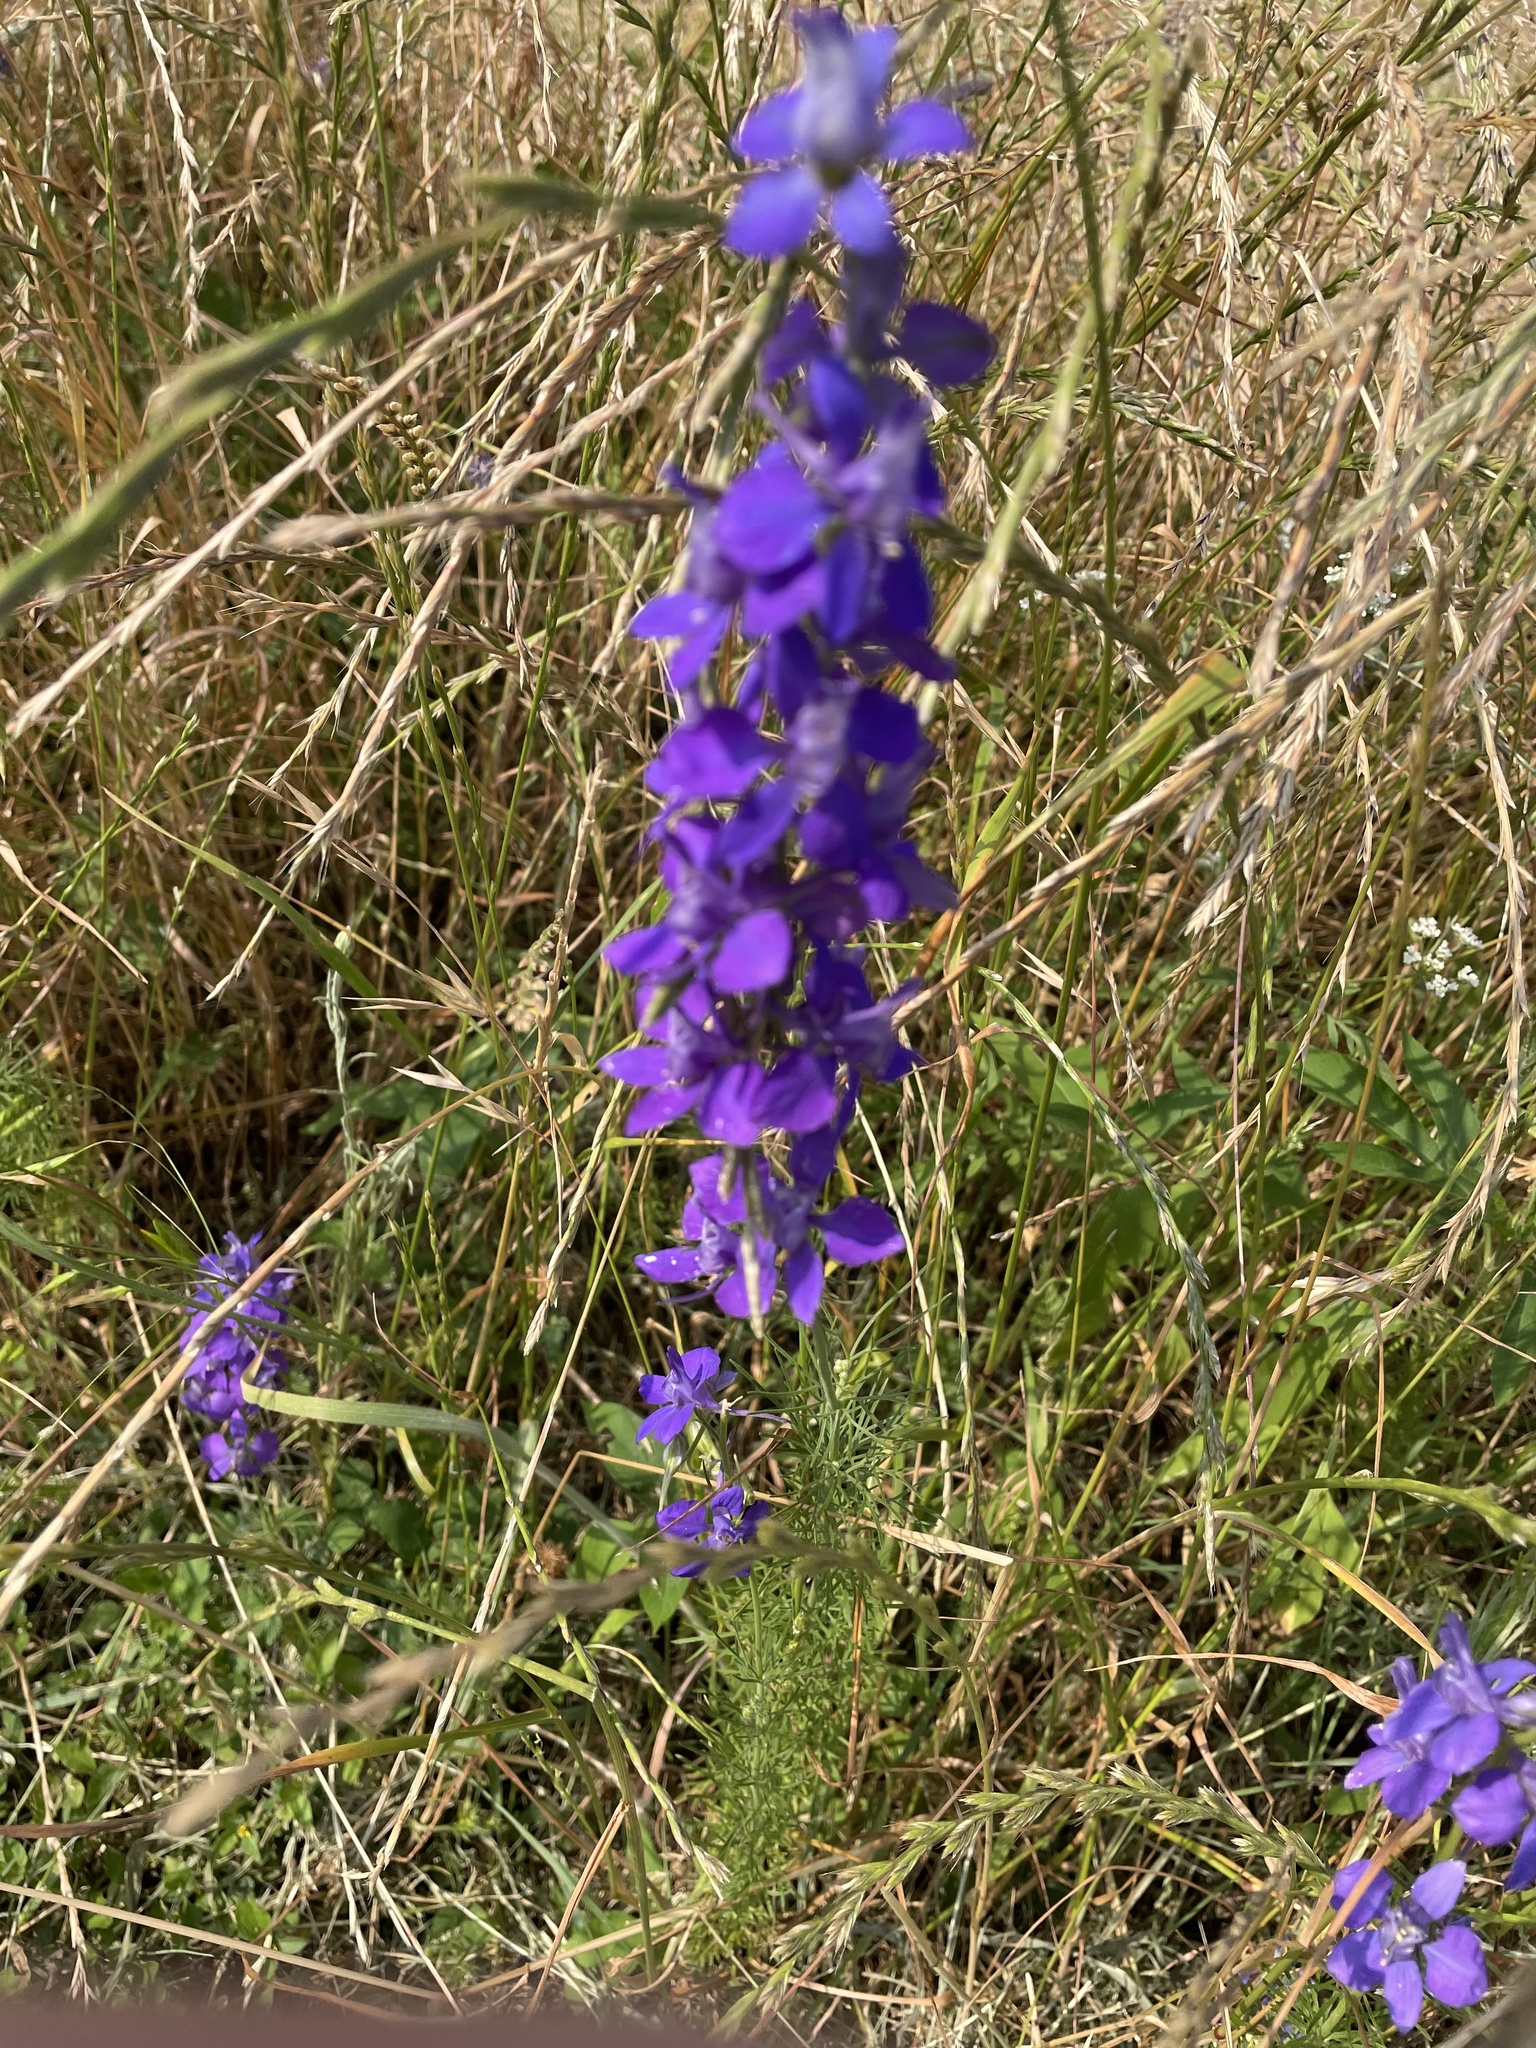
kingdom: Plantae
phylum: Tracheophyta
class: Magnoliopsida
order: Ranunculales
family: Ranunculaceae
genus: Delphinium
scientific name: Delphinium ajacis
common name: Doubtful knight's-spur
